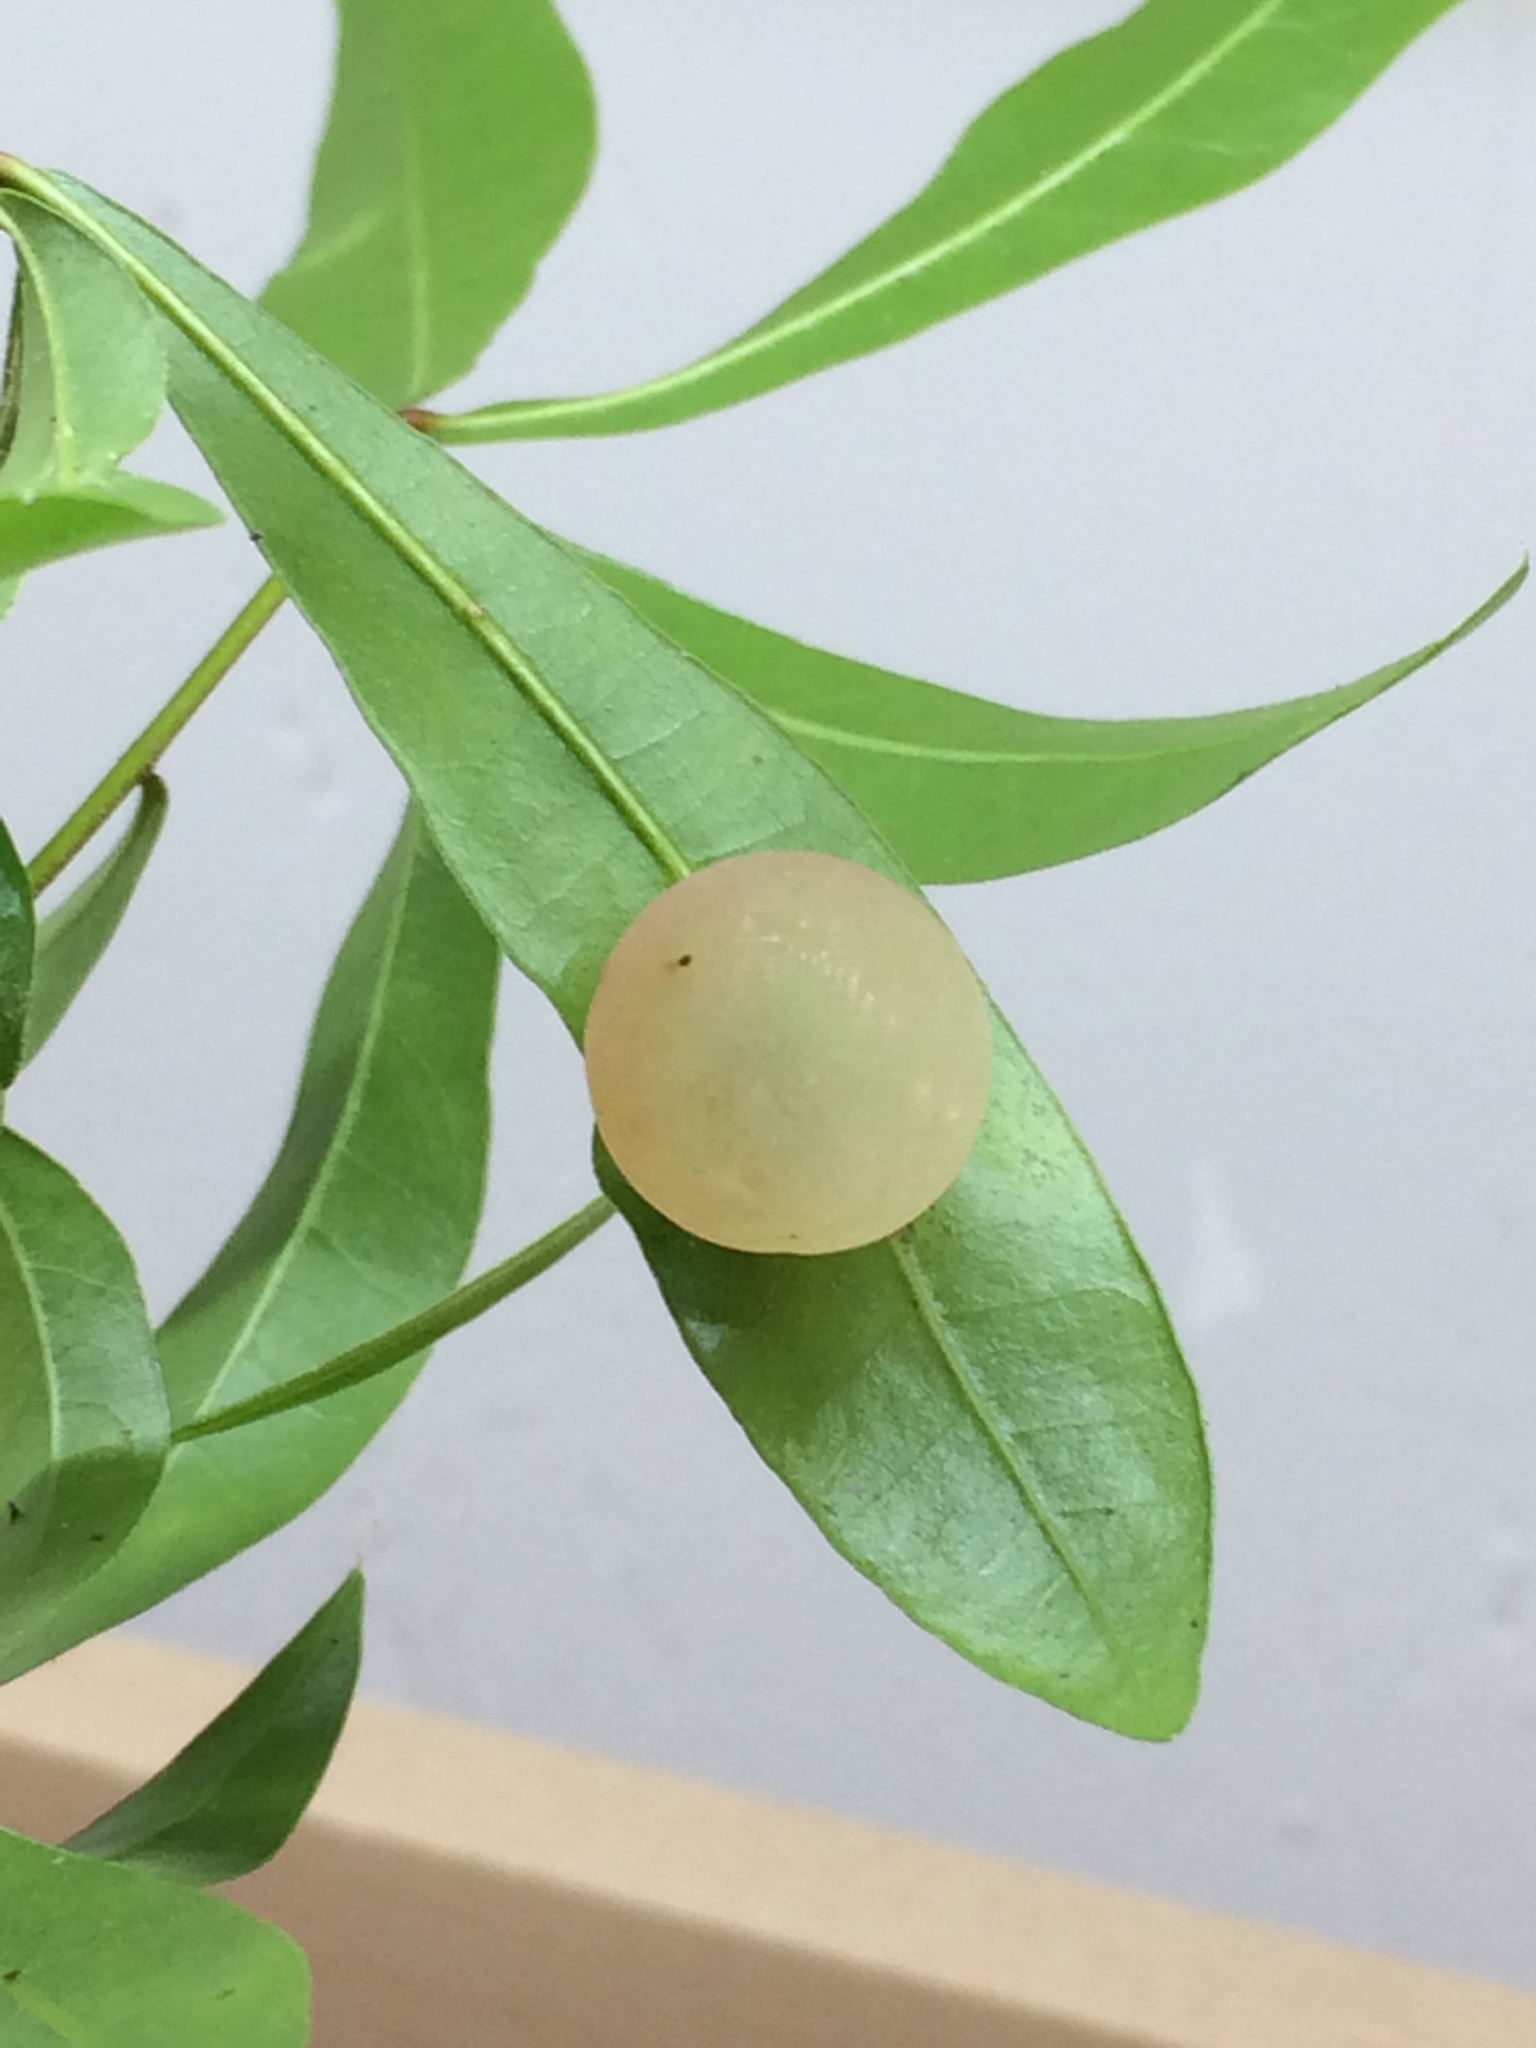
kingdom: Animalia
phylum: Arthropoda
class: Insecta
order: Hymenoptera
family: Cynipidae
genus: Amphibolips
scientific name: Amphibolips
